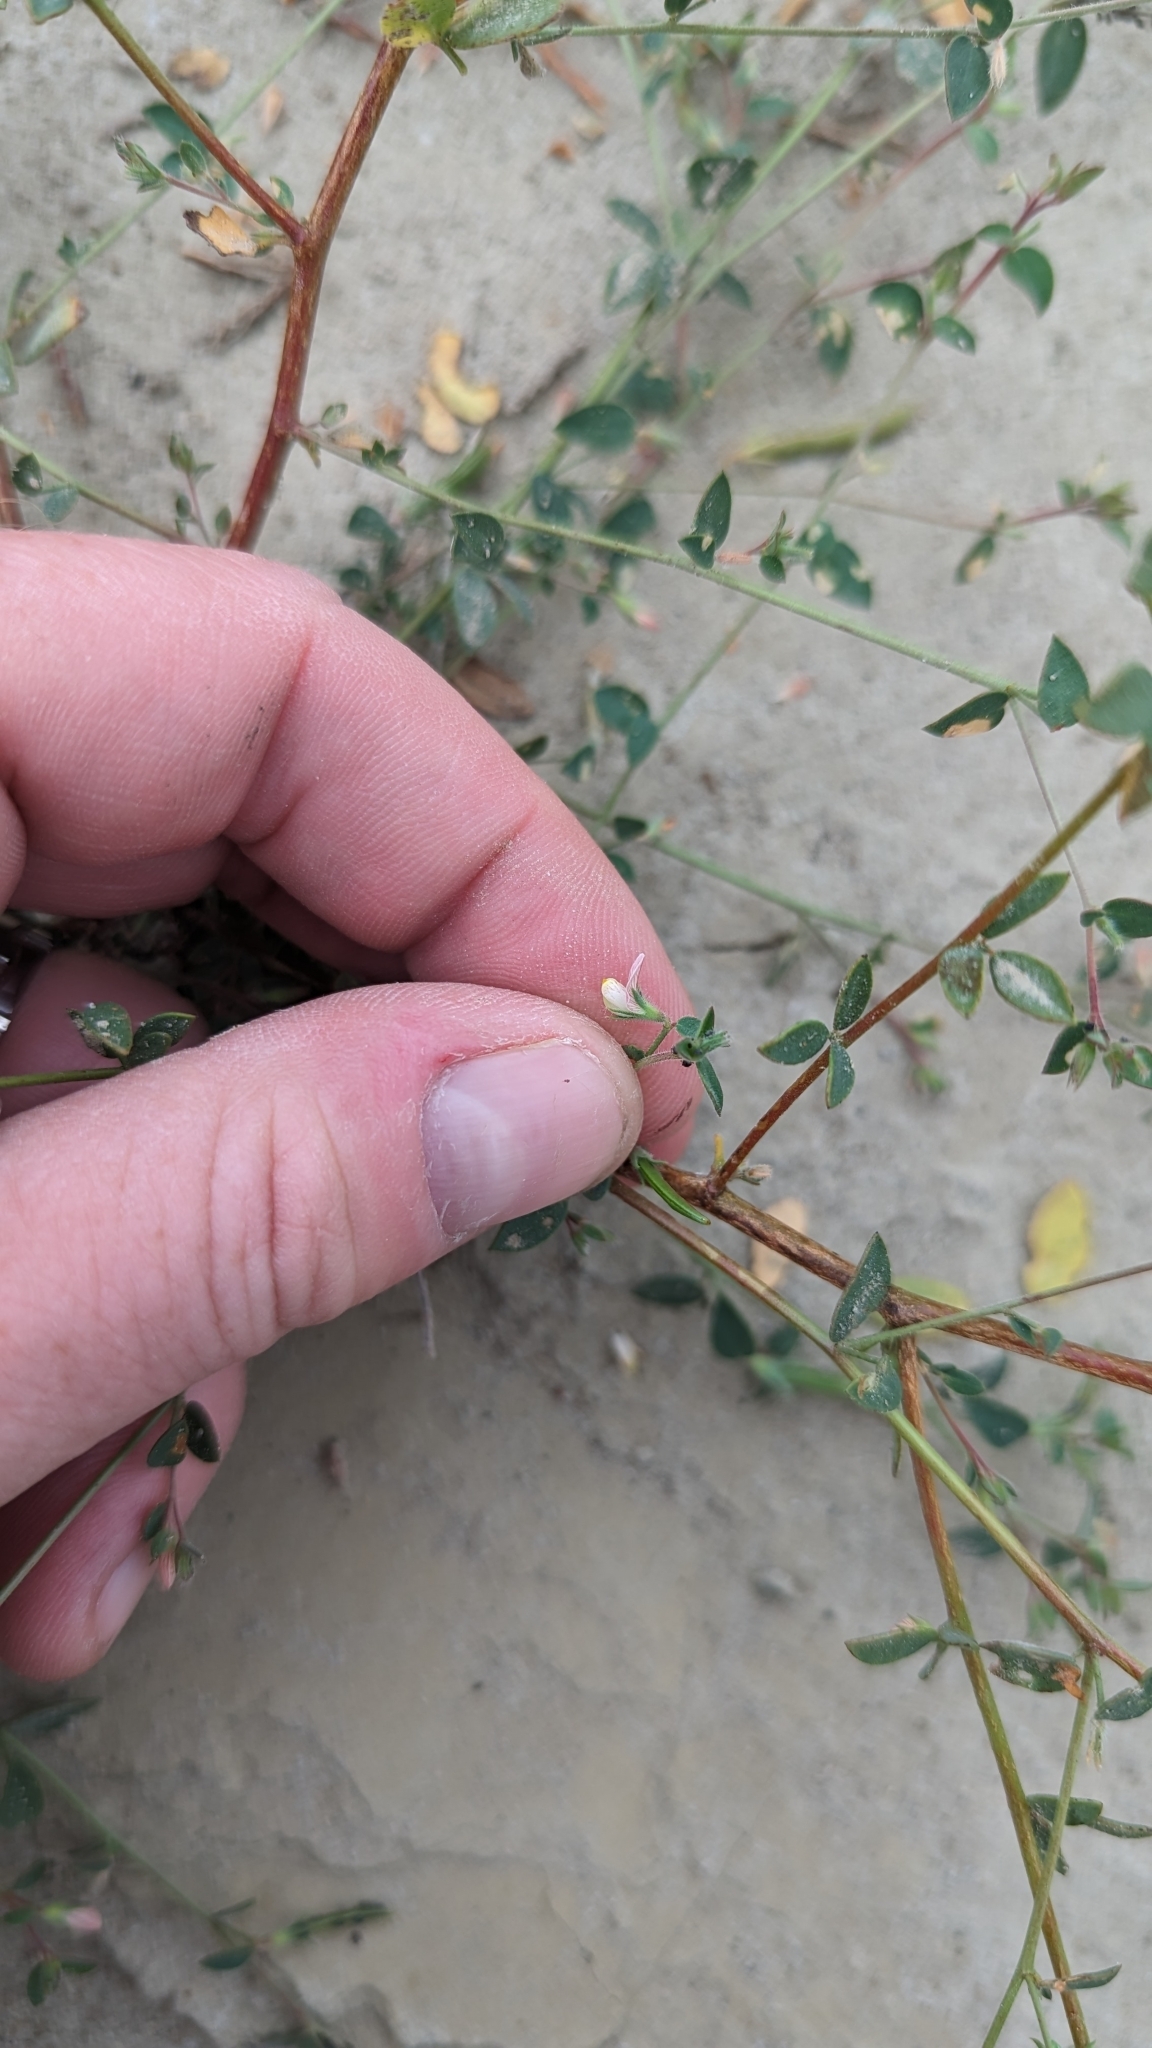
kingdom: Plantae
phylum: Tracheophyta
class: Magnoliopsida
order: Fabales
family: Fabaceae
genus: Acmispon
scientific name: Acmispon americanus
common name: American bird's-foot trefoil
